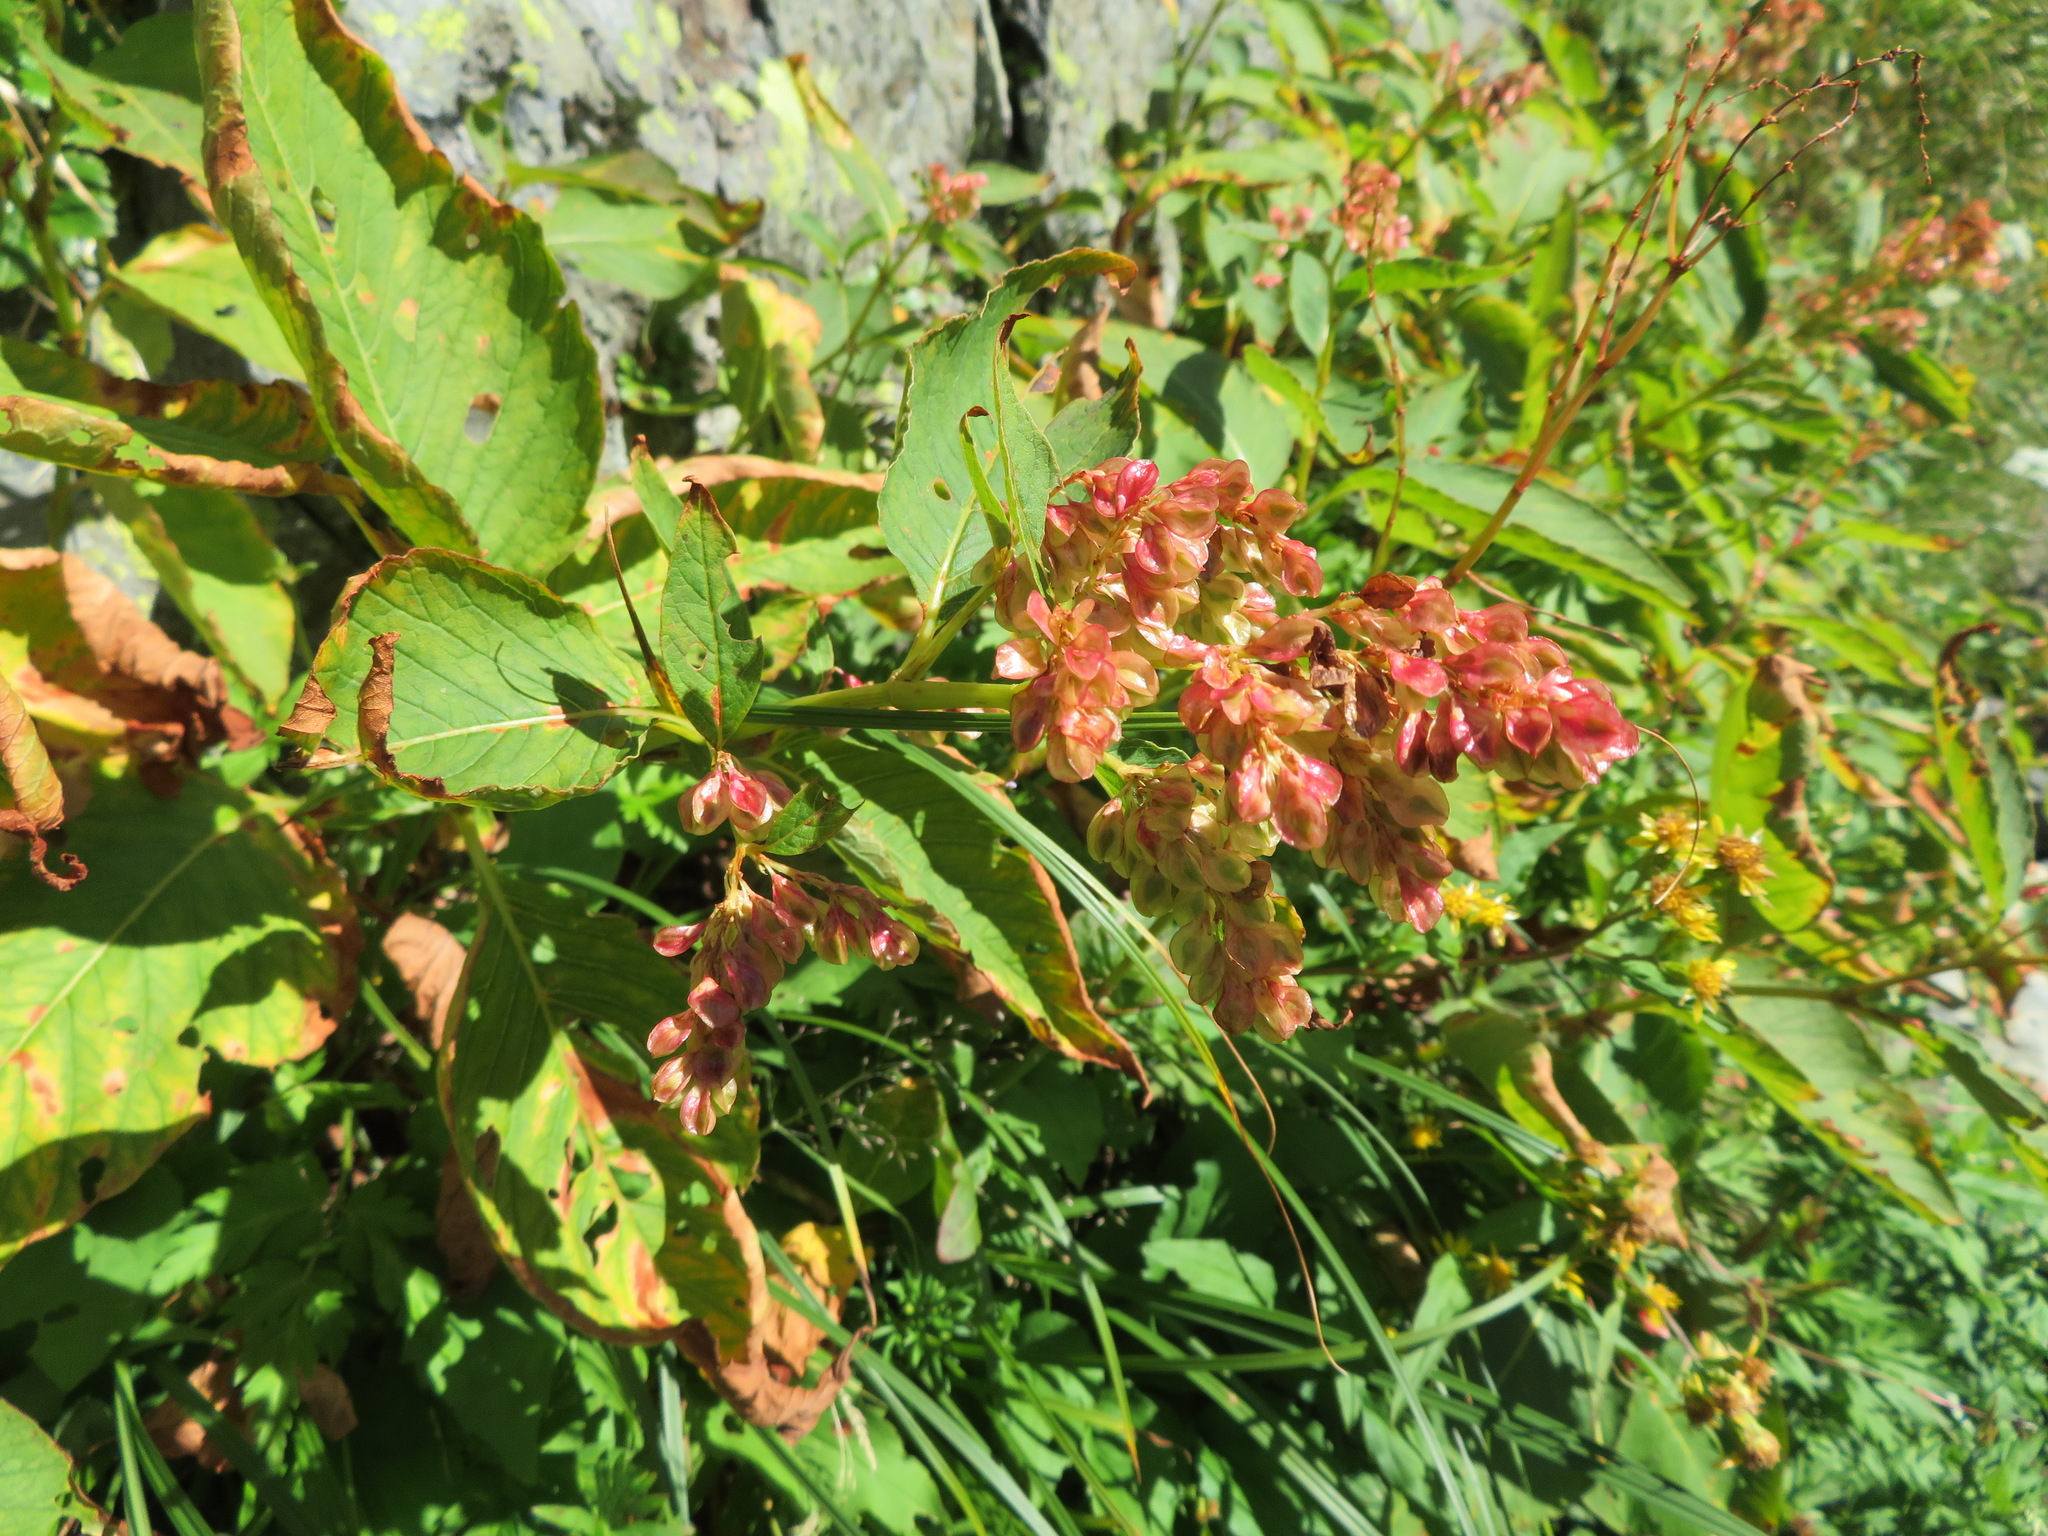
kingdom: Plantae
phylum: Tracheophyta
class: Magnoliopsida
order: Caryophyllales
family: Polygonaceae
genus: Koenigia
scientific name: Koenigia weyrichii
